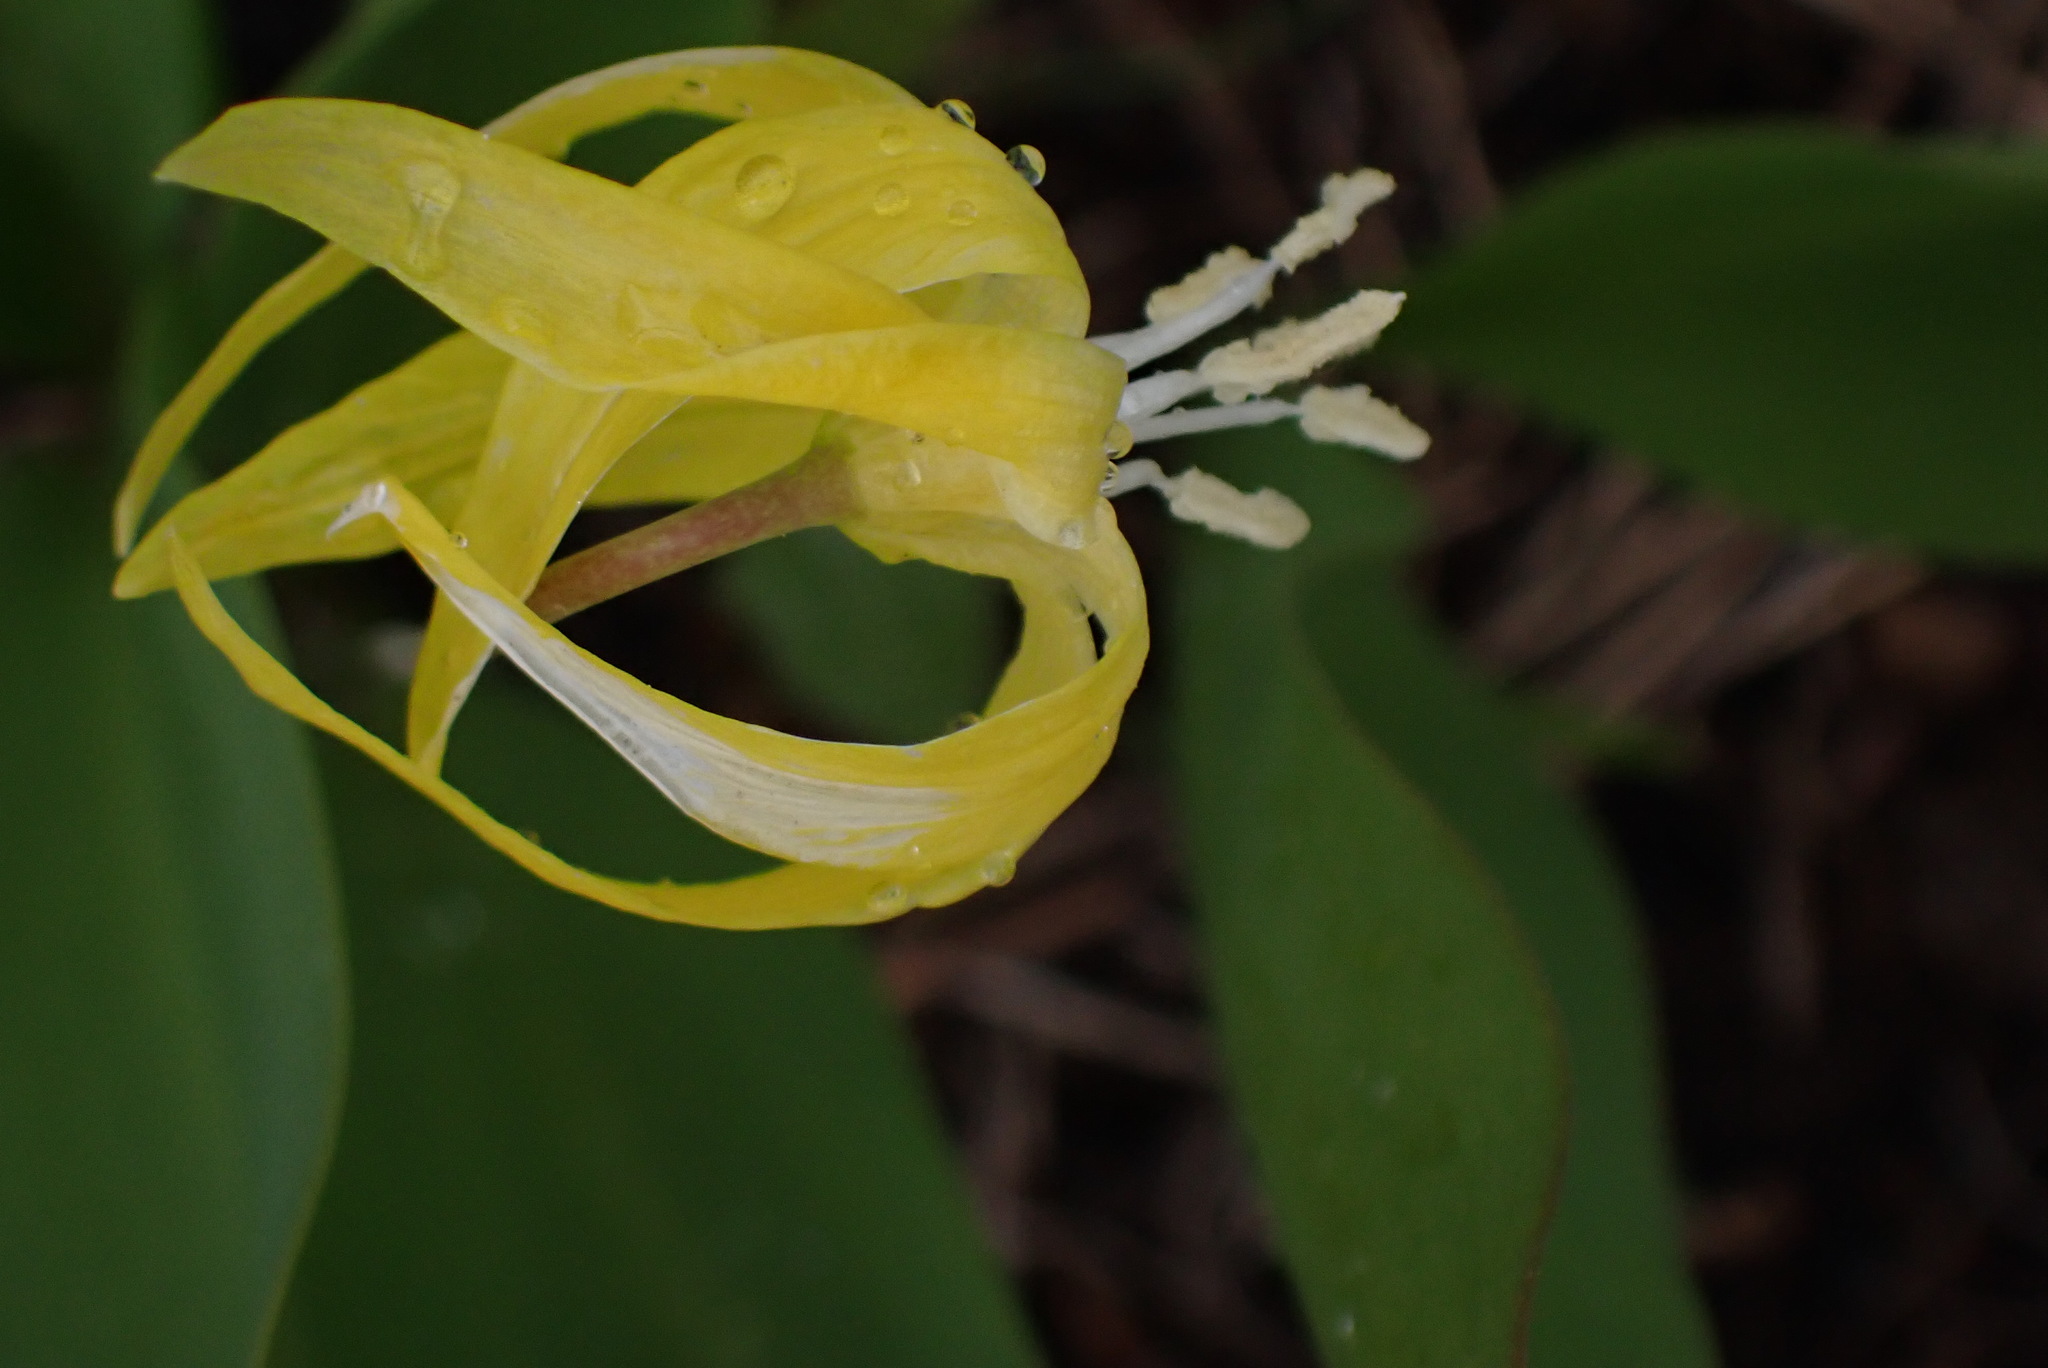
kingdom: Plantae
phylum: Tracheophyta
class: Liliopsida
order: Liliales
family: Liliaceae
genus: Erythronium
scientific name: Erythronium grandiflorum
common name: Avalanche-lily
